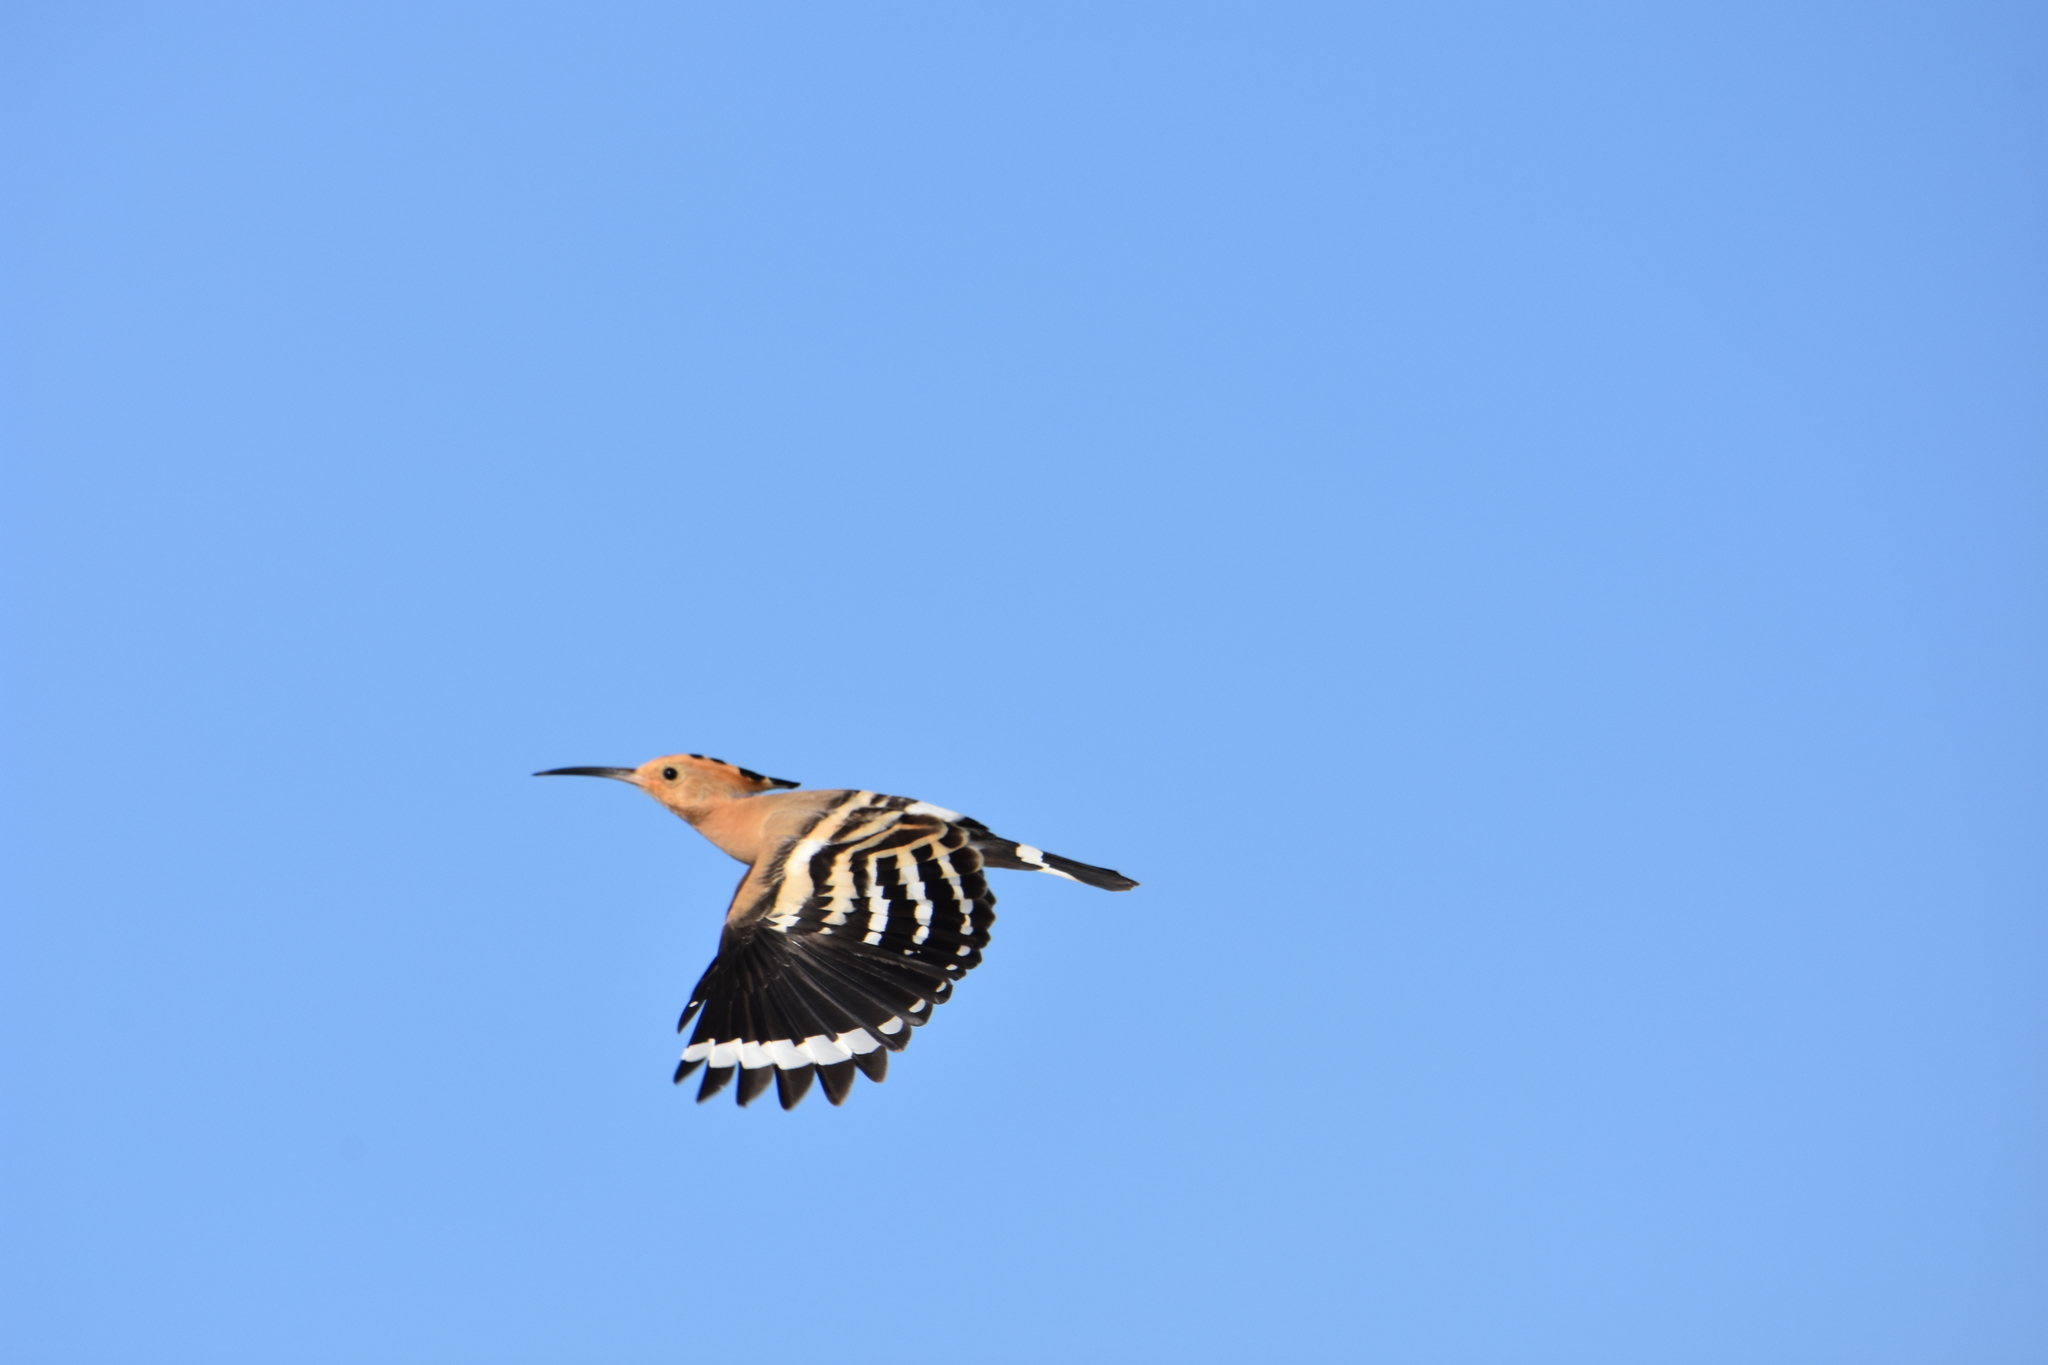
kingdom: Animalia
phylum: Chordata
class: Aves
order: Bucerotiformes
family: Upupidae
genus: Upupa
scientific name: Upupa epops
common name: Eurasian hoopoe
